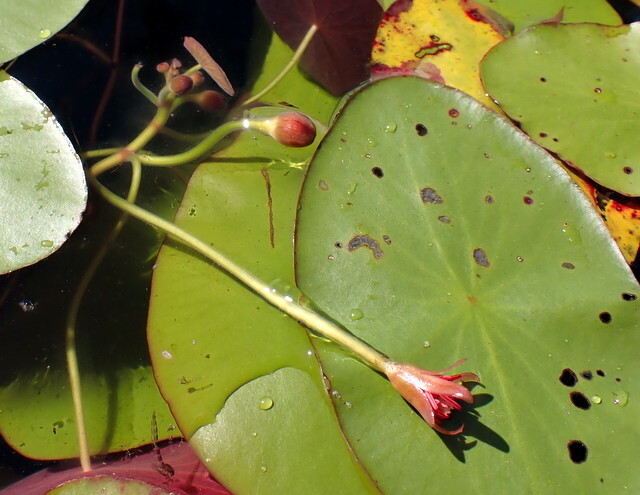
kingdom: Plantae
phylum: Tracheophyta
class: Magnoliopsida
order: Nymphaeales
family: Cabombaceae
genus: Brasenia
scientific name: Brasenia schreberi
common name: Water-shield
